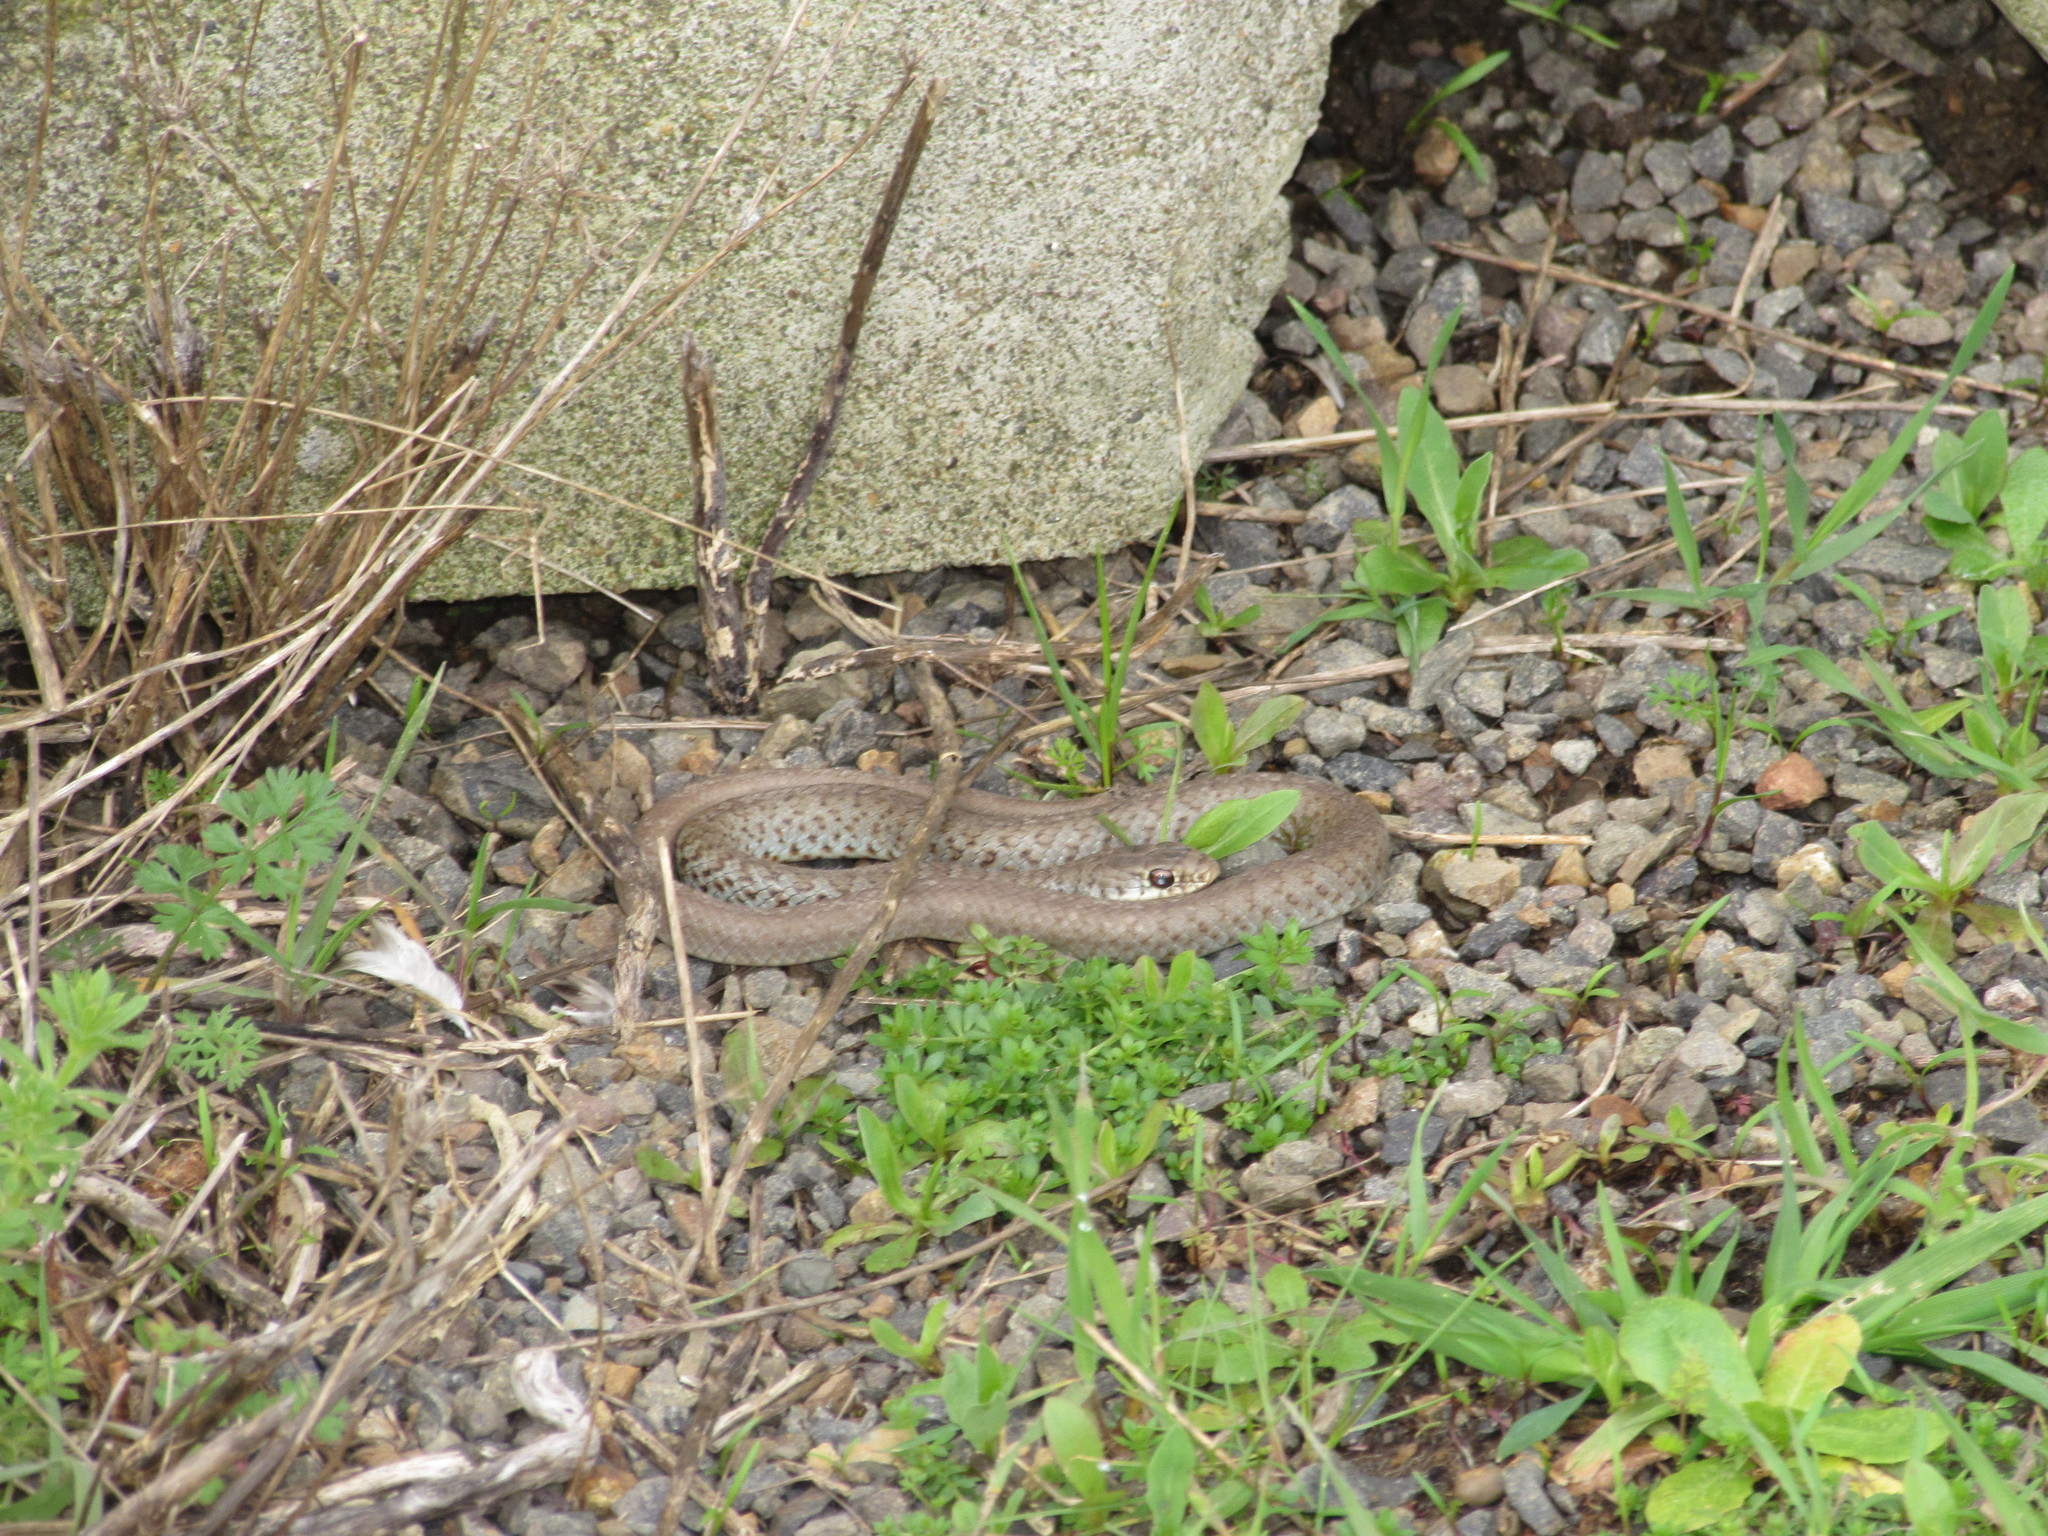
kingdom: Animalia
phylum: Chordata
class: Squamata
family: Colubridae
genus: Coluber
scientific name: Coluber constrictor
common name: Eastern racer
